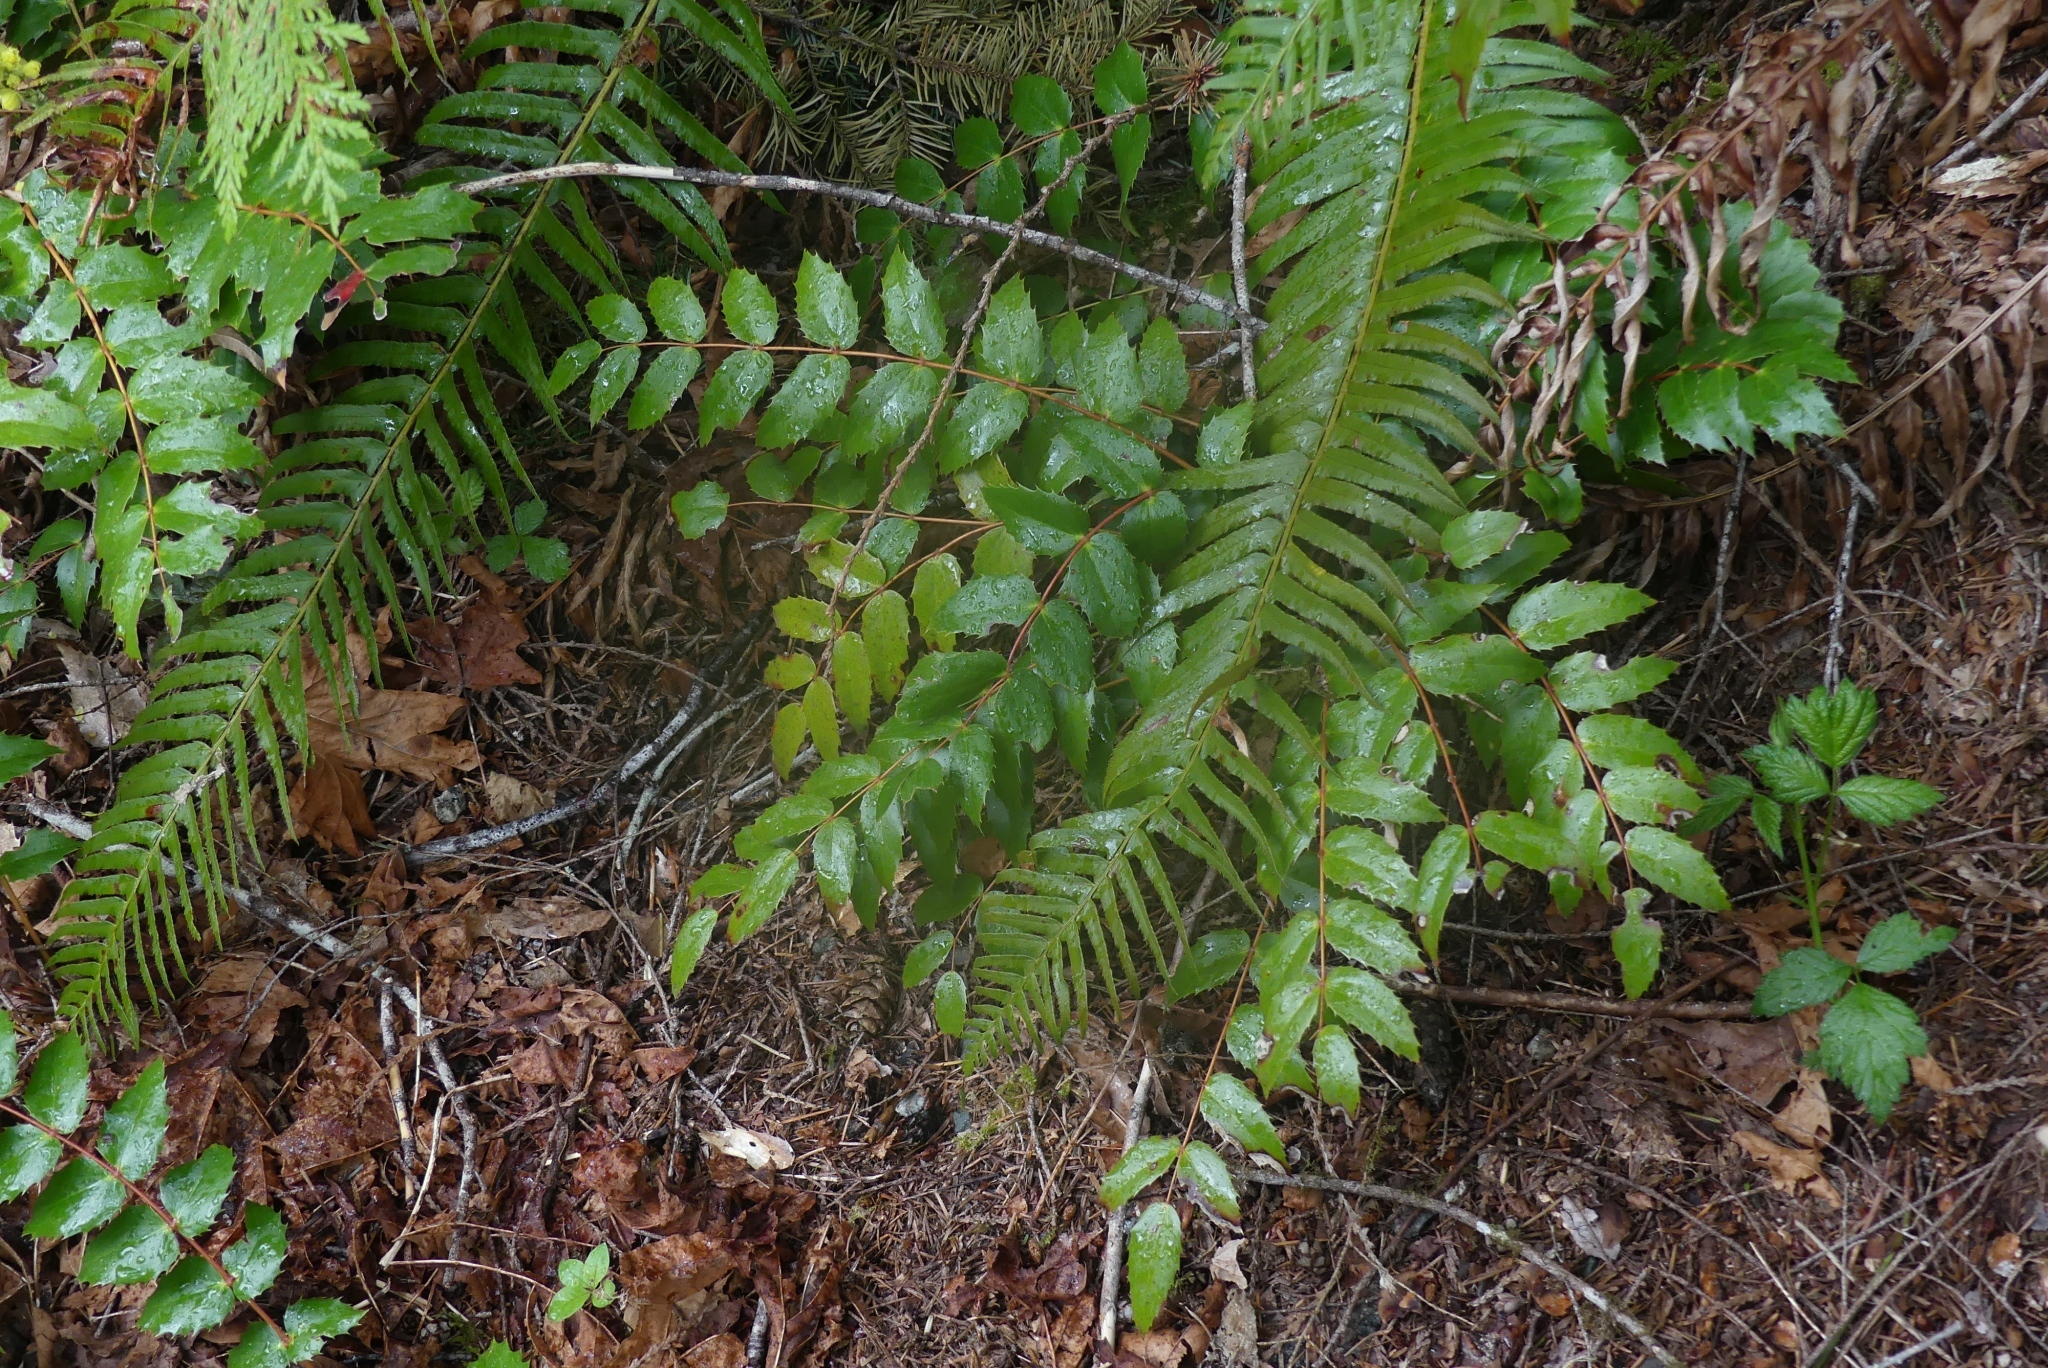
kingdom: Plantae
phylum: Tracheophyta
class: Magnoliopsida
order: Ranunculales
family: Berberidaceae
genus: Mahonia
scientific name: Mahonia nervosa
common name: Cascade oregon-grape
